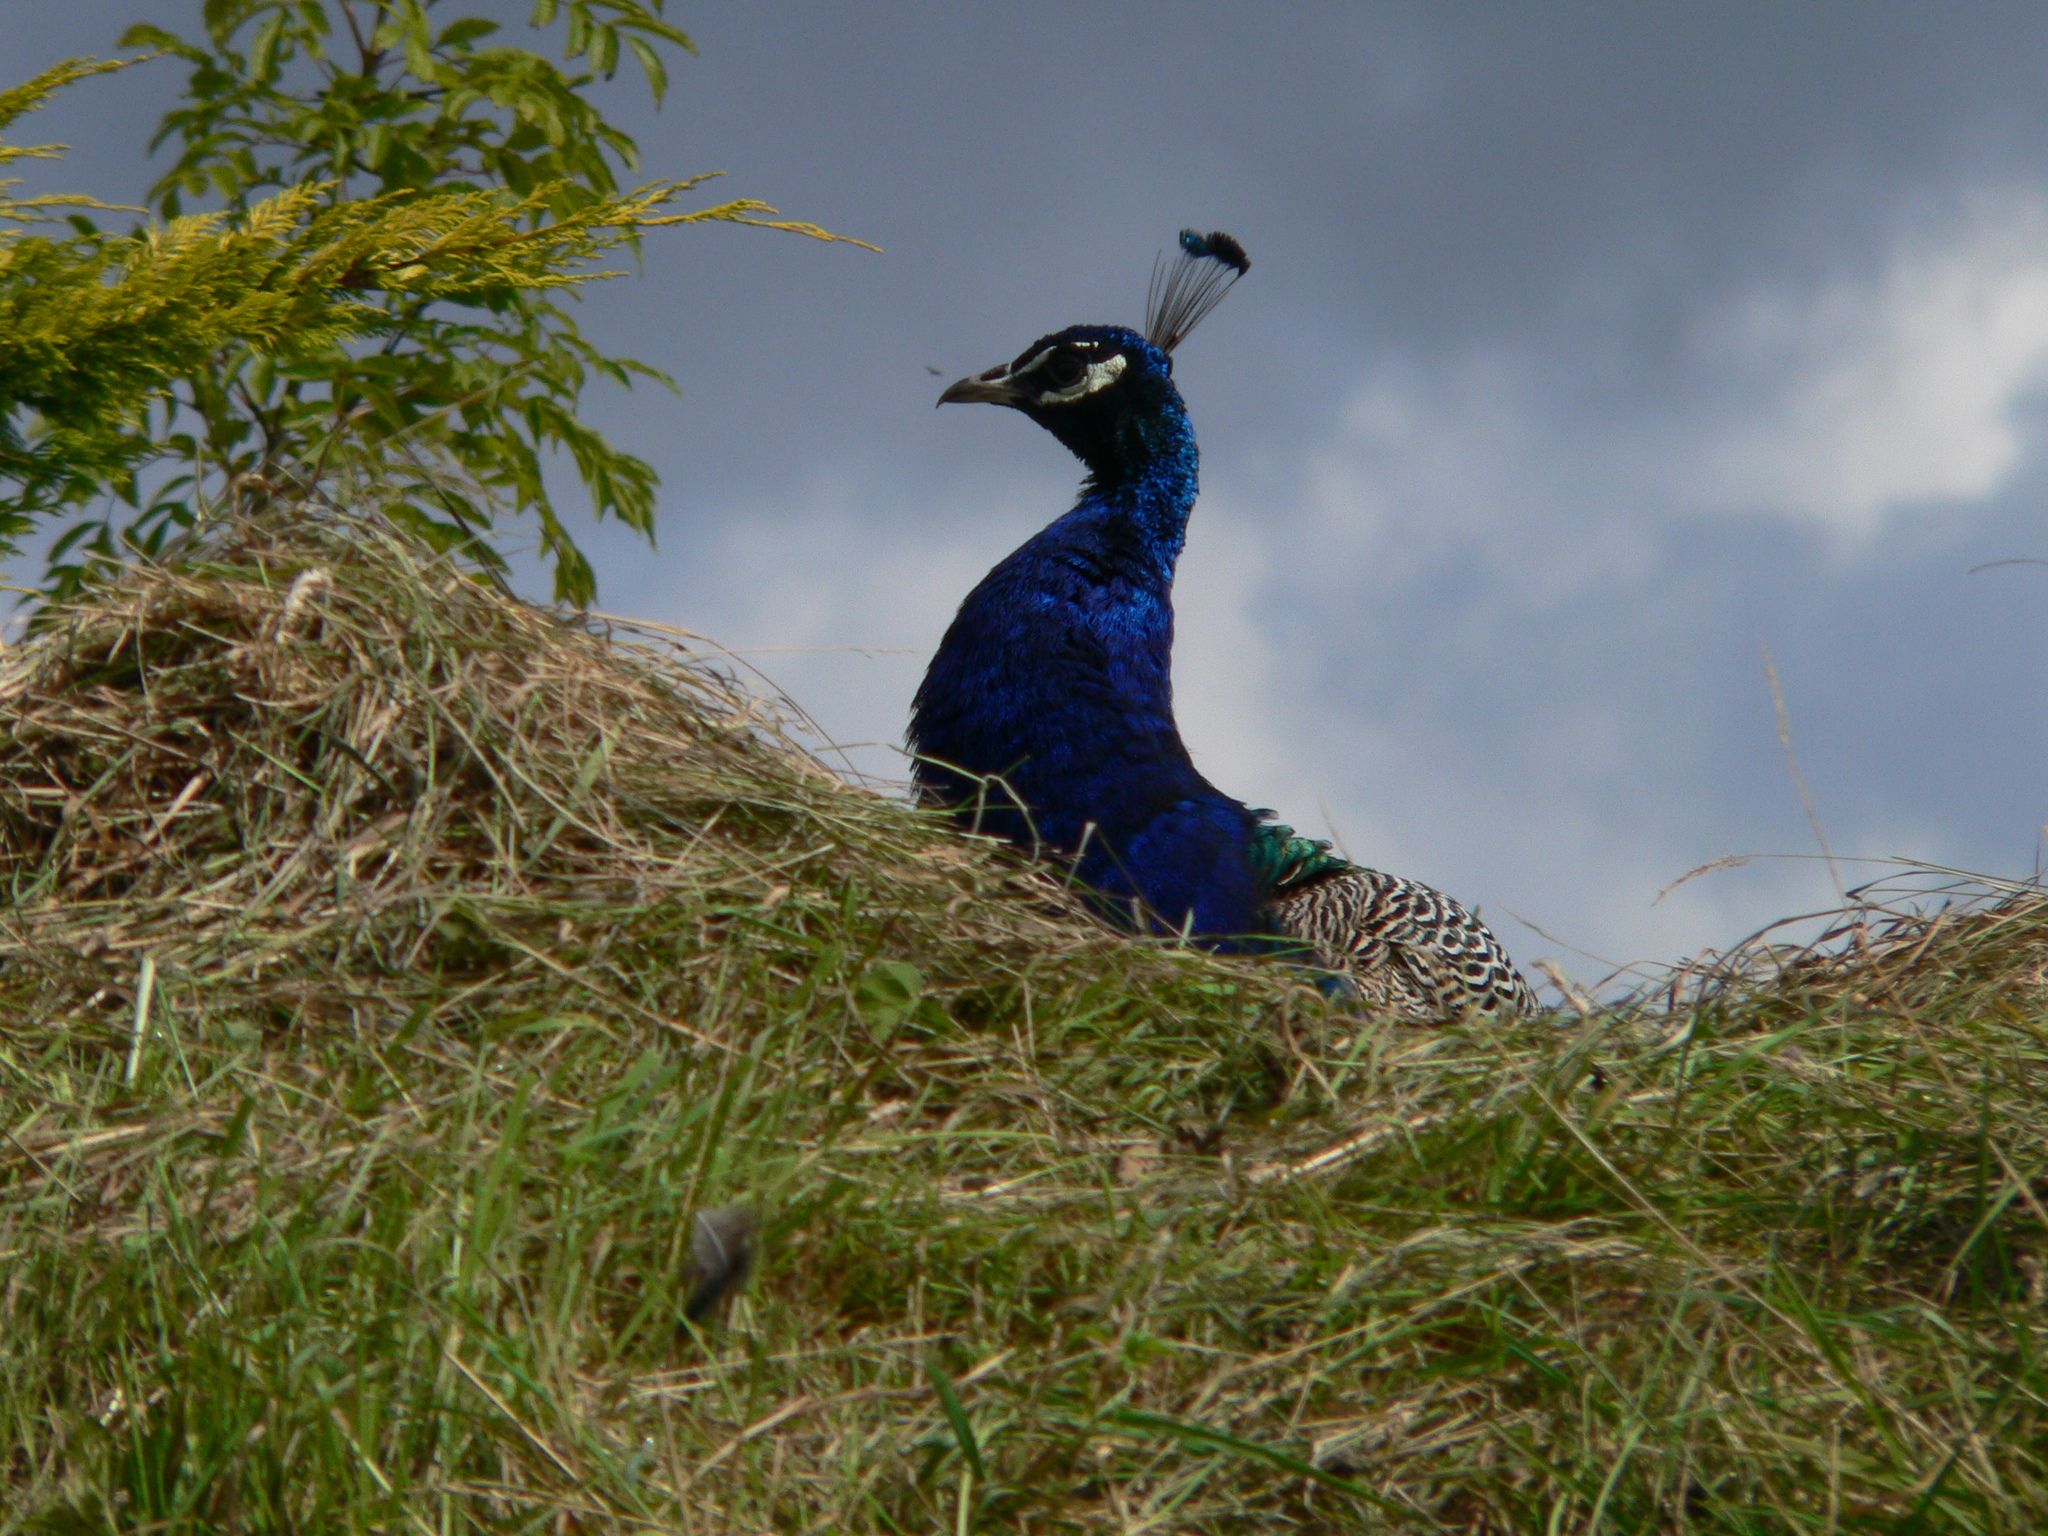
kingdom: Animalia
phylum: Chordata
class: Aves
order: Galliformes
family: Phasianidae
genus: Pavo
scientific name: Pavo cristatus
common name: Indian peafowl
